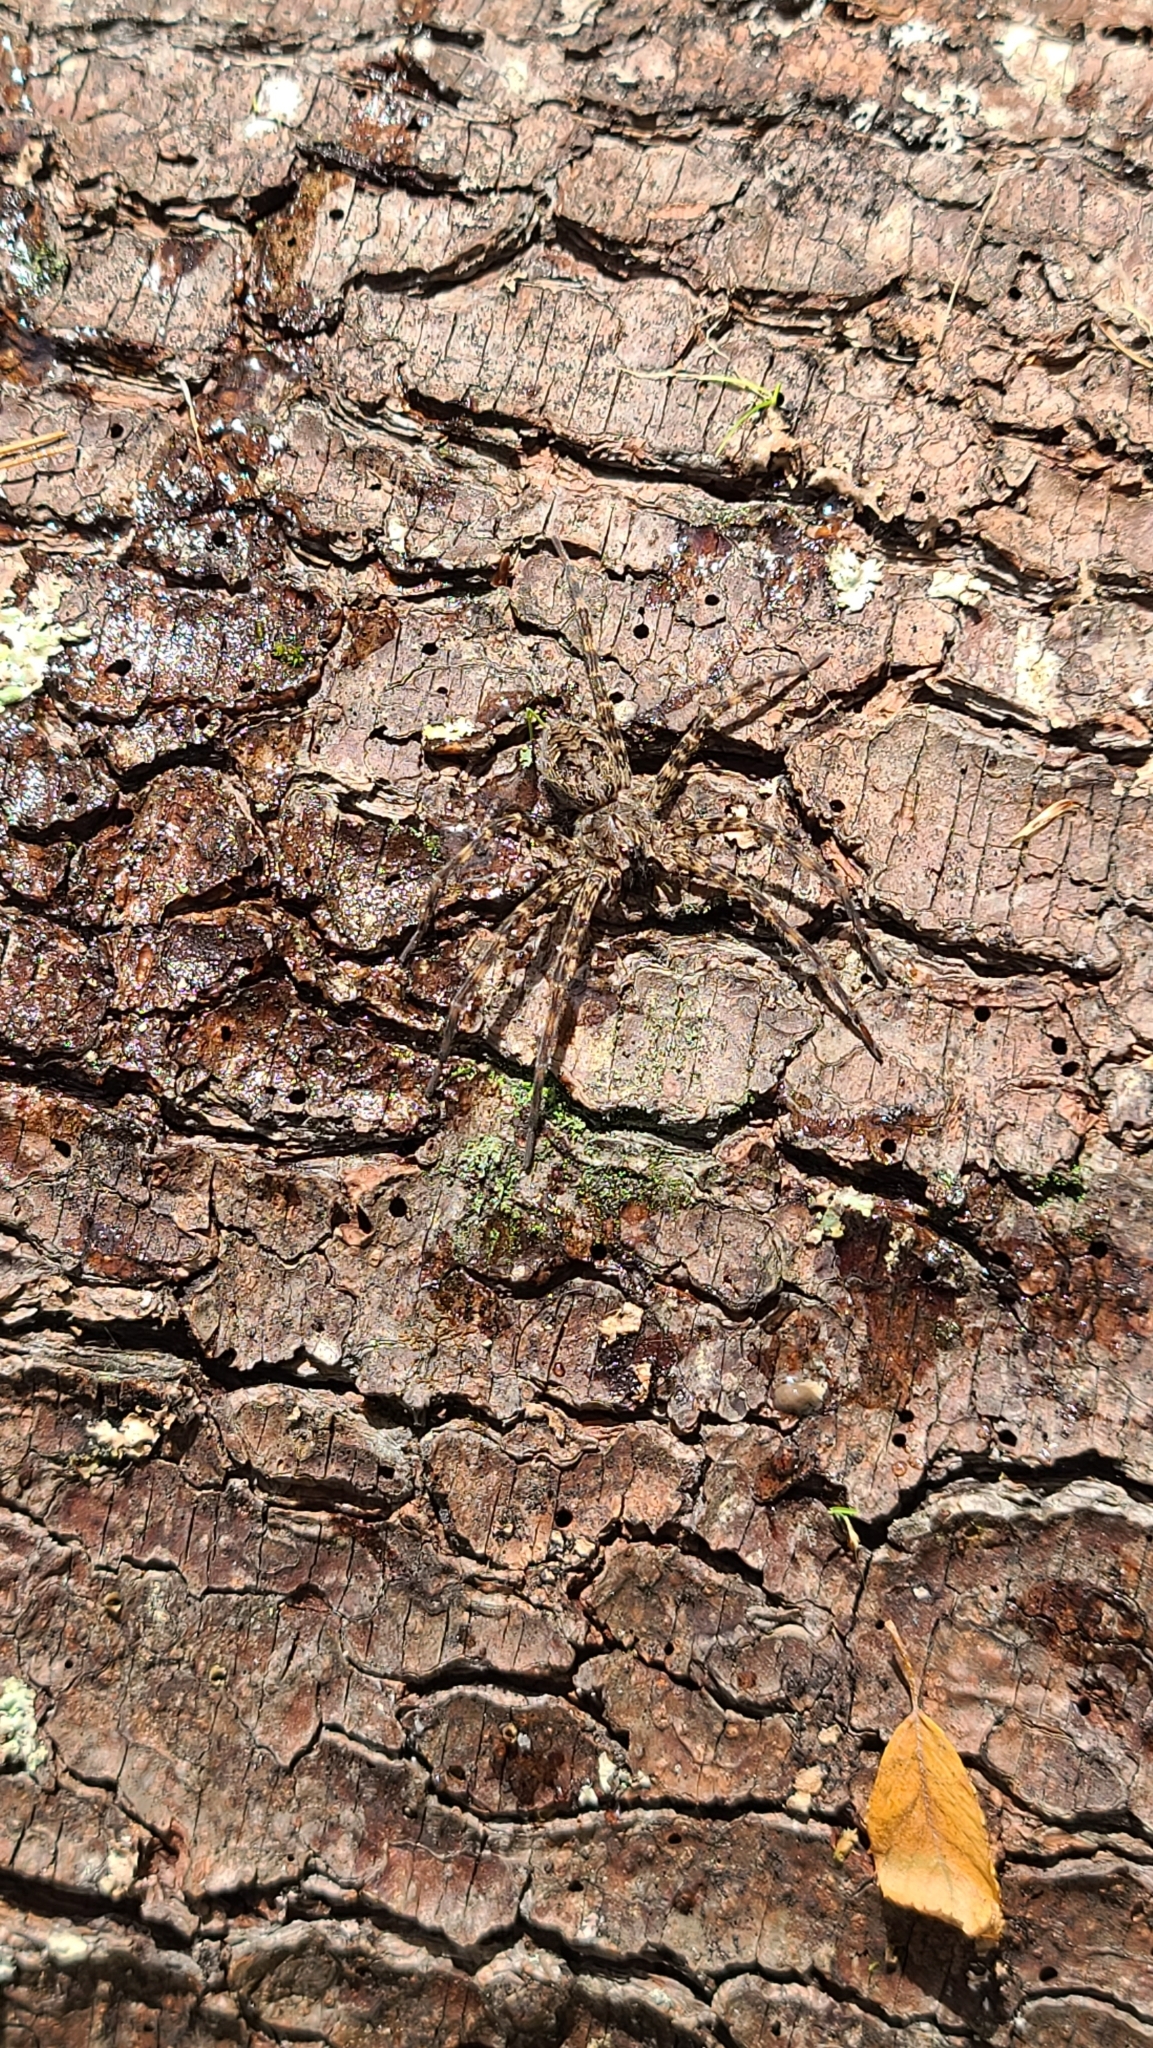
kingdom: Animalia
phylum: Arthropoda
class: Arachnida
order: Araneae
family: Pisauridae
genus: Dolomedes
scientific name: Dolomedes tenebrosus
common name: Dark fishing spider
